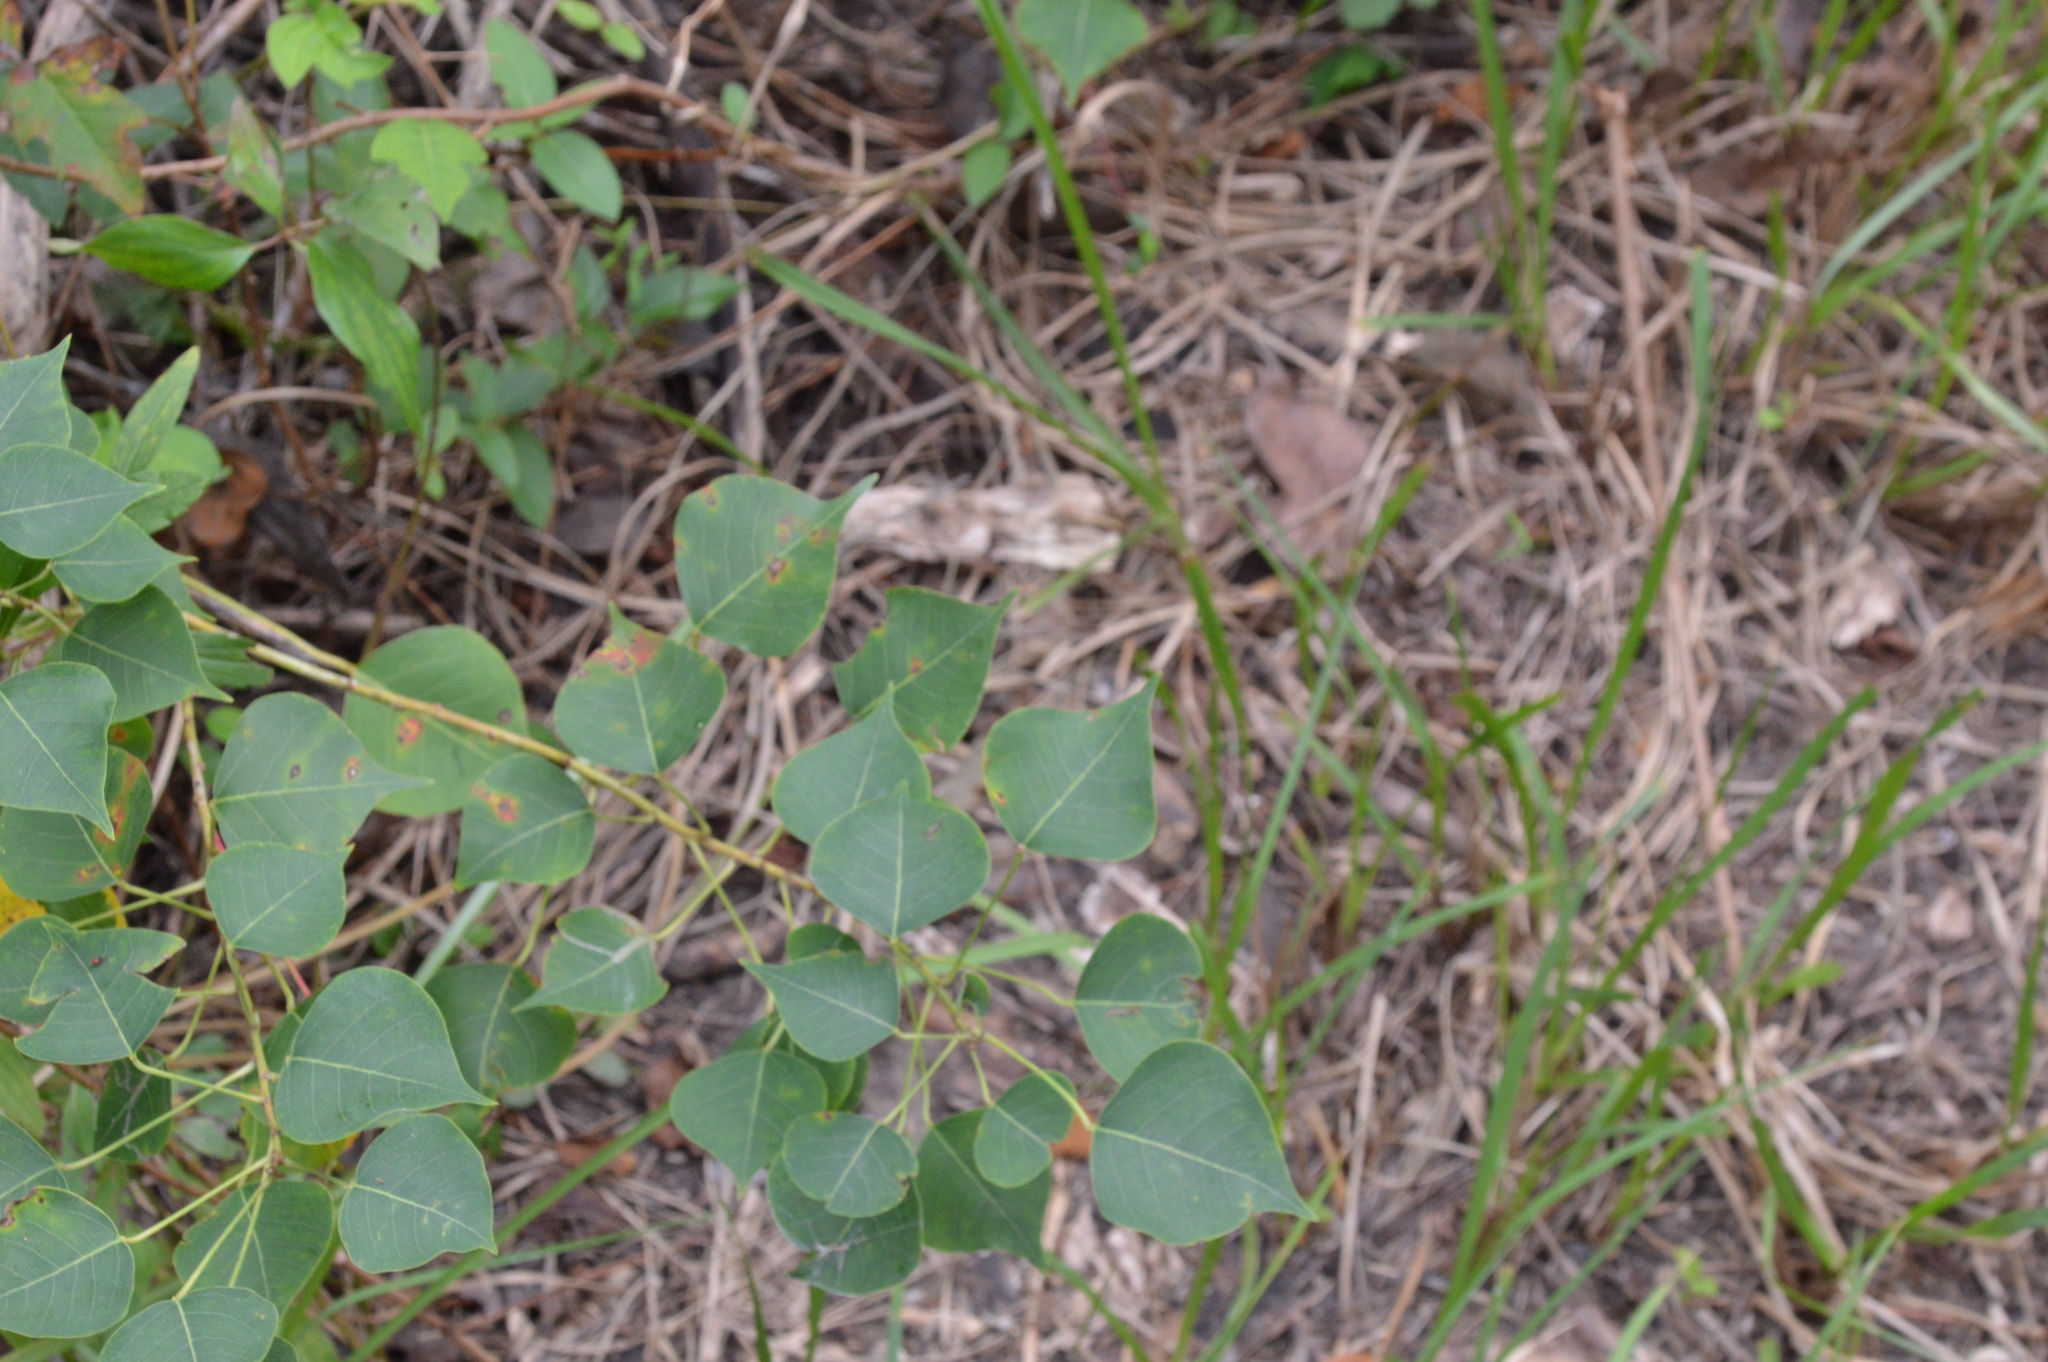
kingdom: Plantae
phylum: Tracheophyta
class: Magnoliopsida
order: Malpighiales
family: Euphorbiaceae
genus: Triadica
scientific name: Triadica sebifera
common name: Chinese tallow
